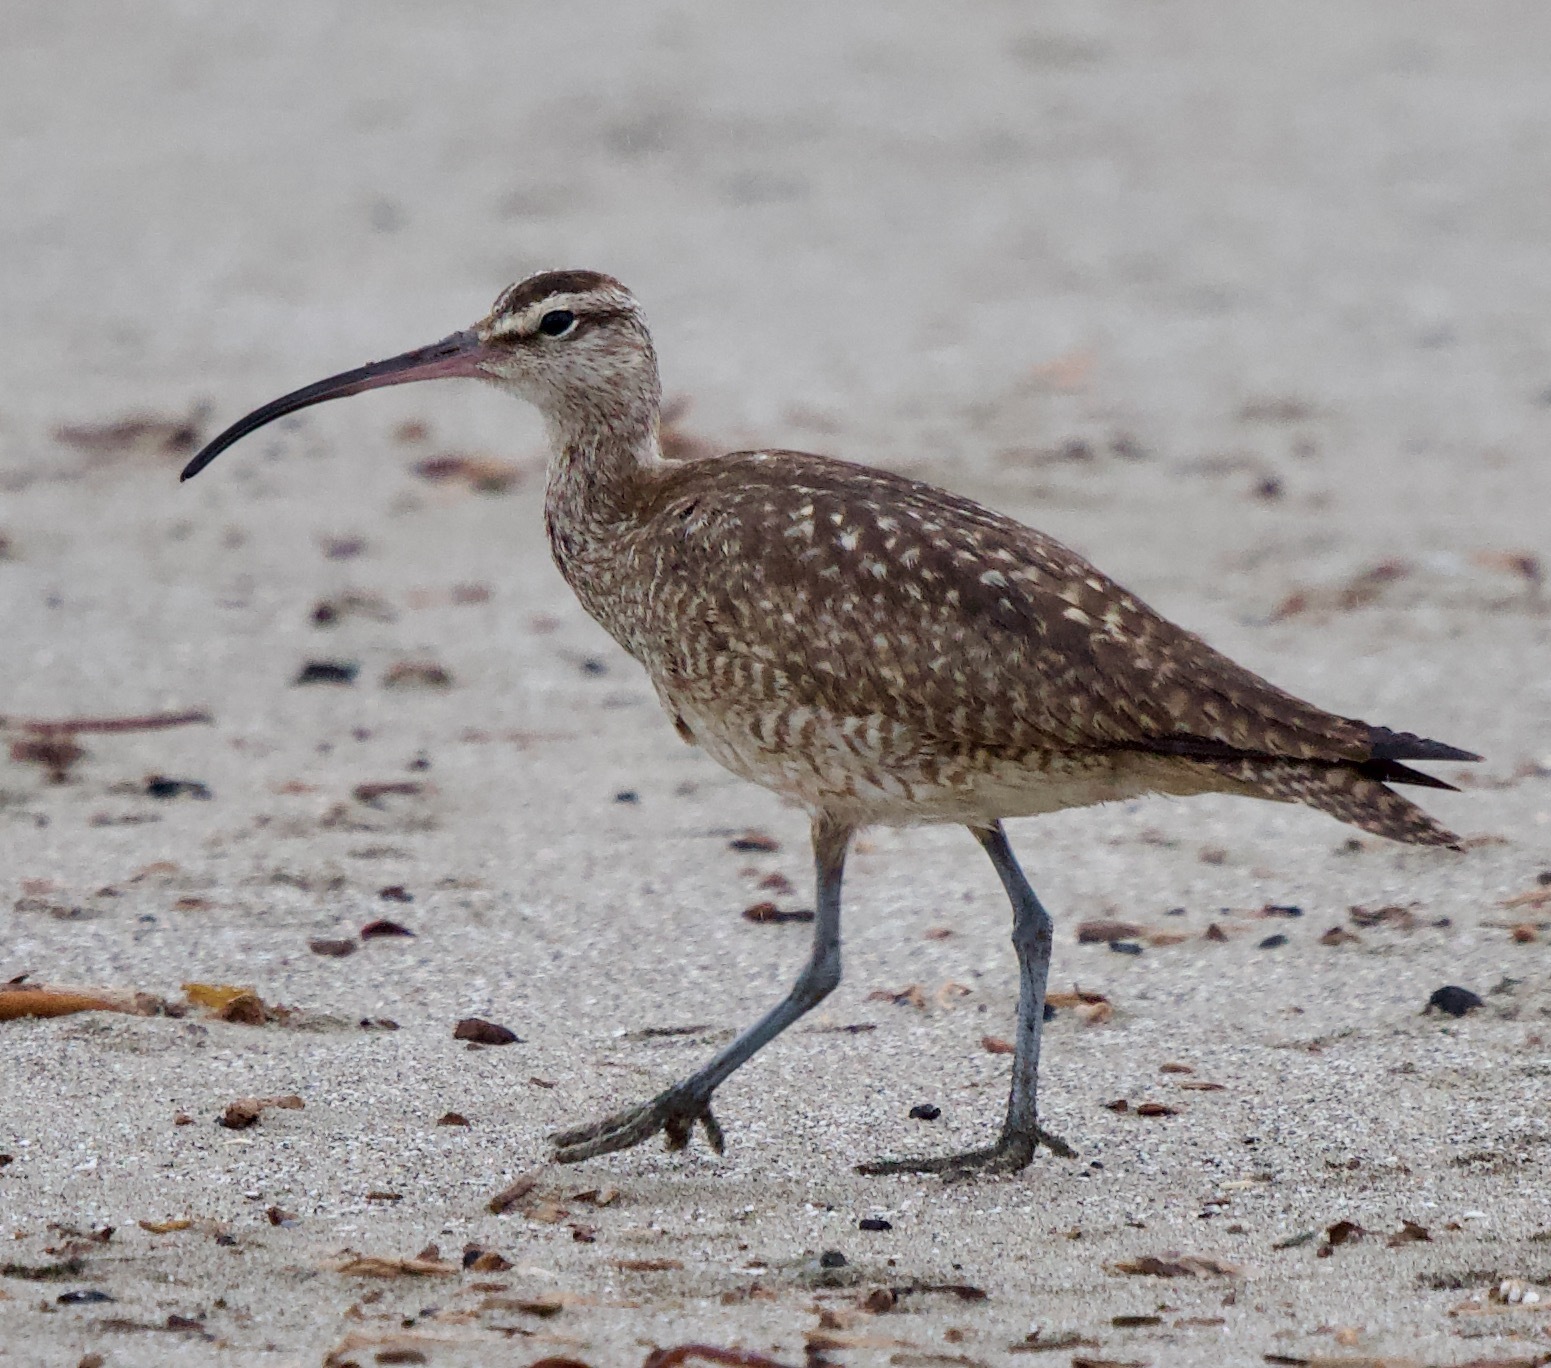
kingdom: Animalia
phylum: Chordata
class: Aves
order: Charadriiformes
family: Scolopacidae
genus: Numenius
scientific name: Numenius phaeopus
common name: Whimbrel
